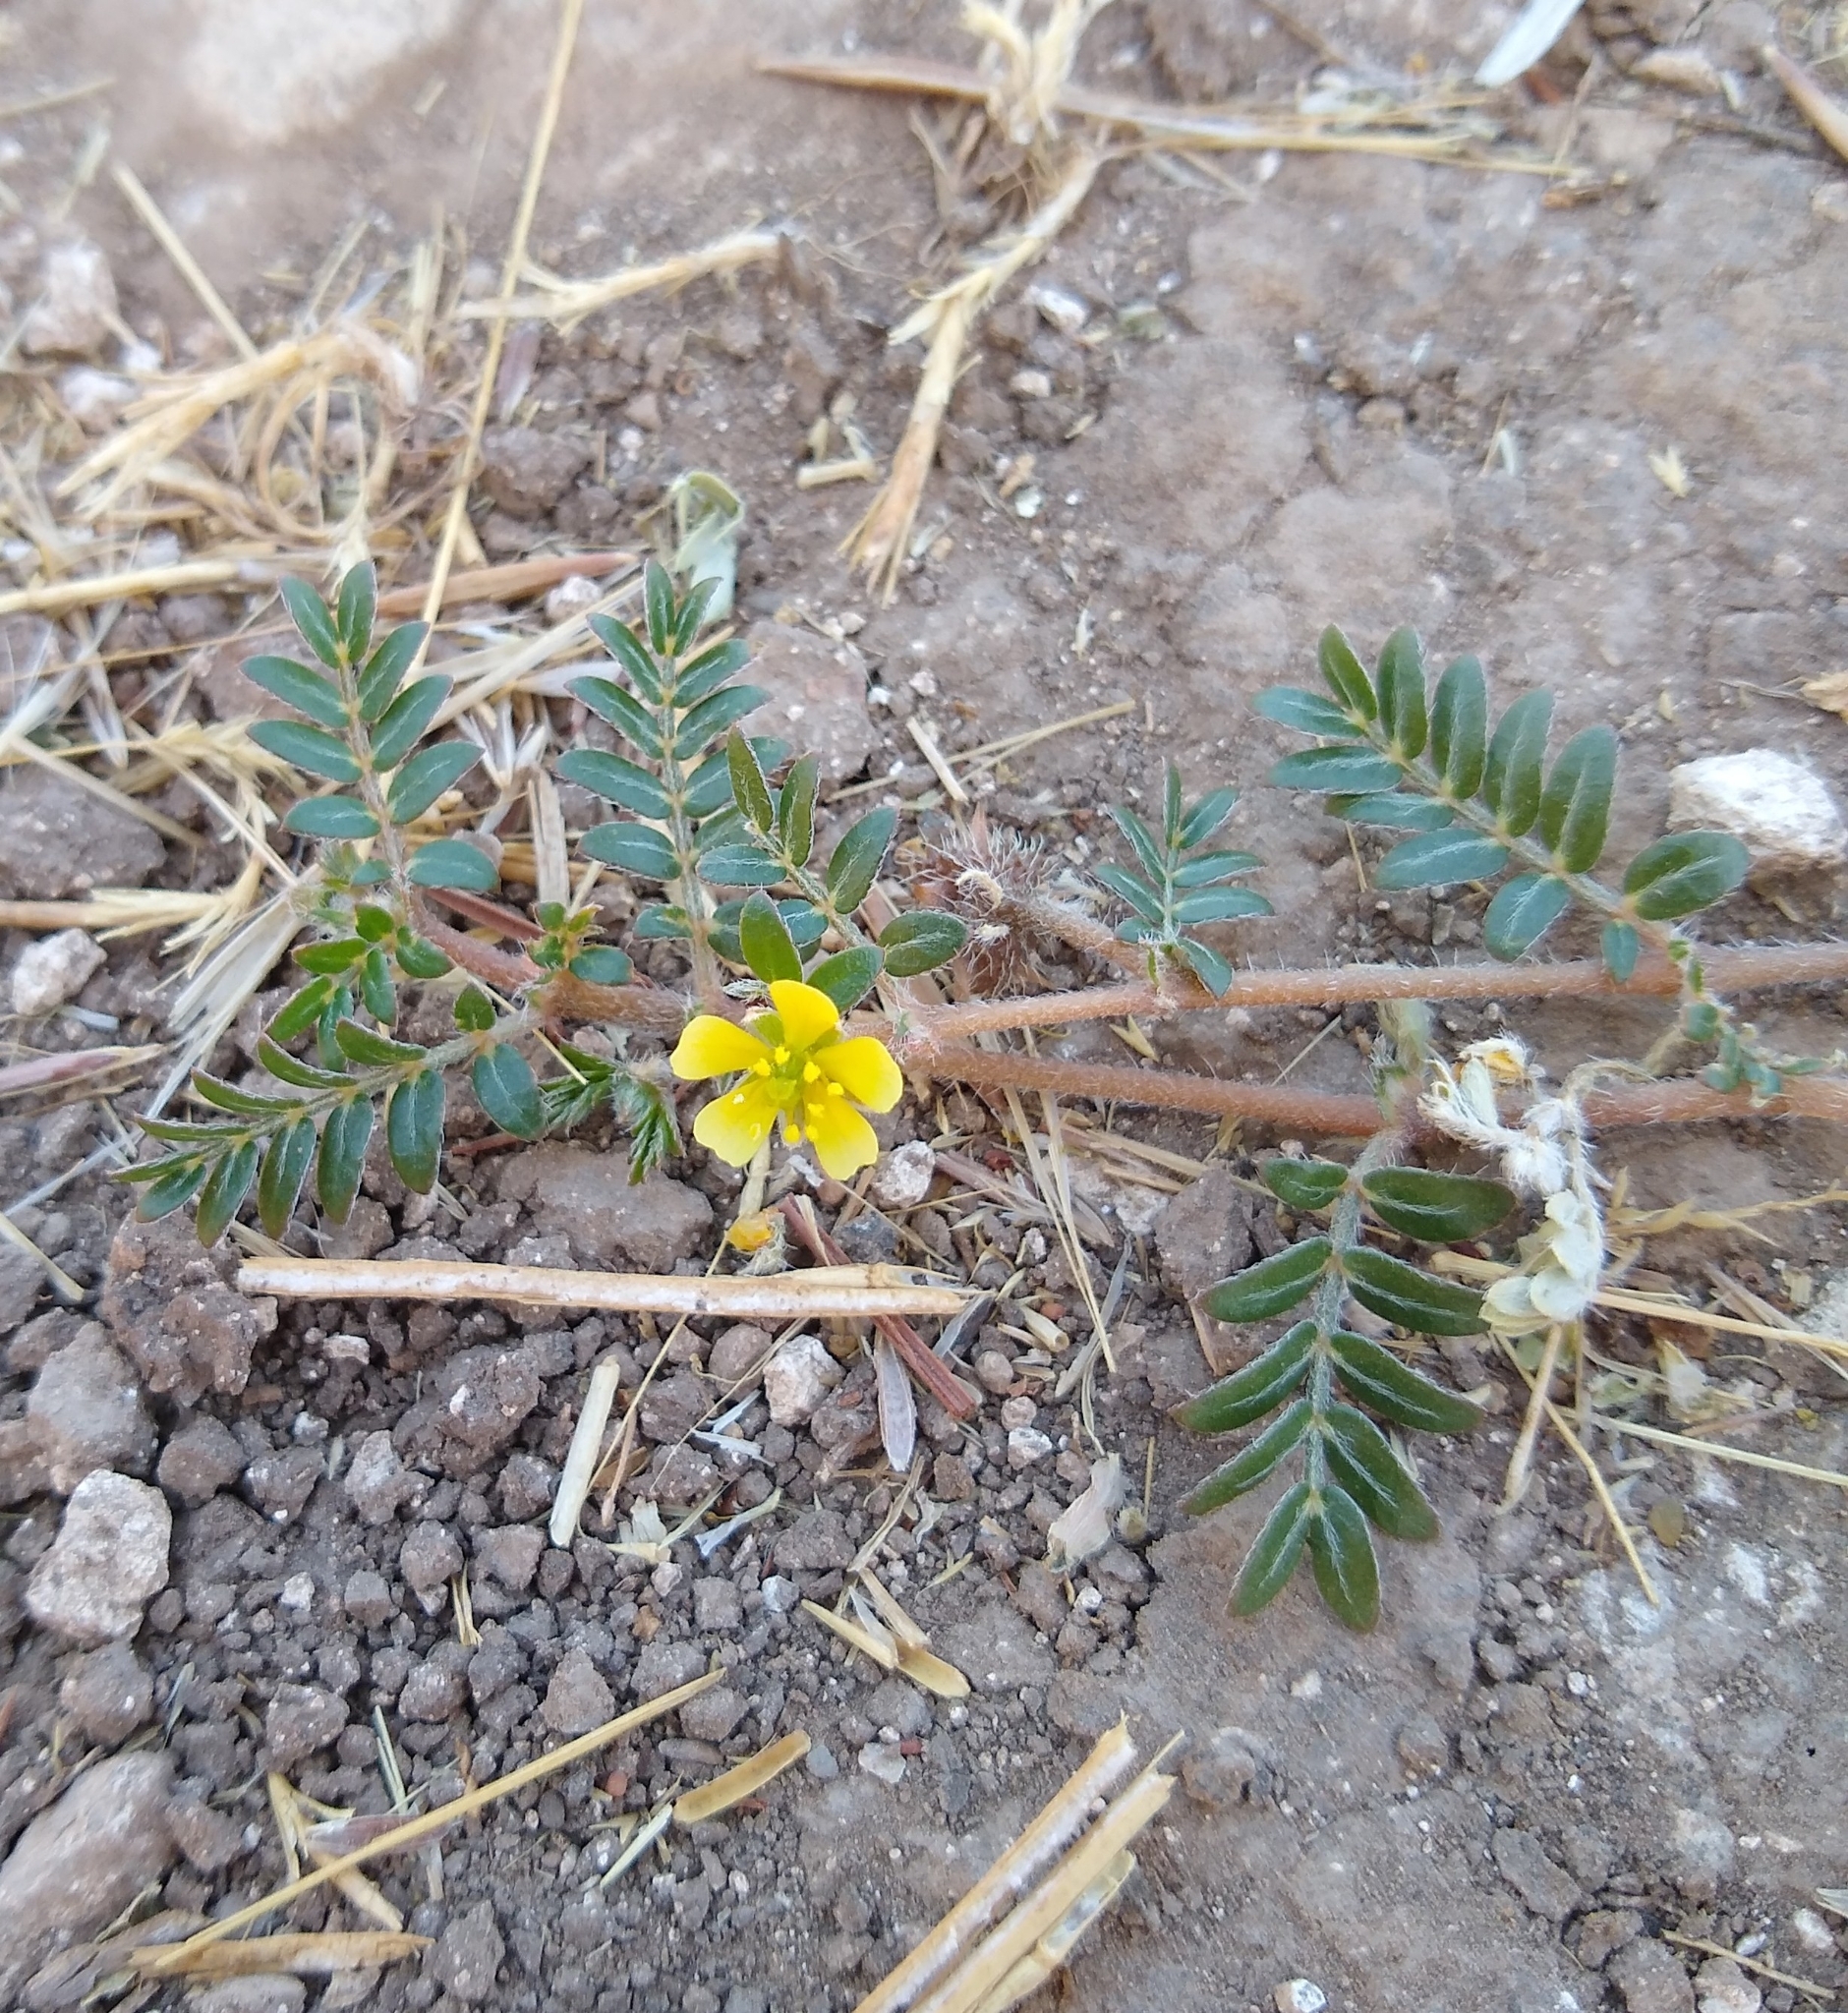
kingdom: Plantae
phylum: Tracheophyta
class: Magnoliopsida
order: Zygophyllales
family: Zygophyllaceae
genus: Tribulus
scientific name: Tribulus terrestris
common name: Puncturevine
